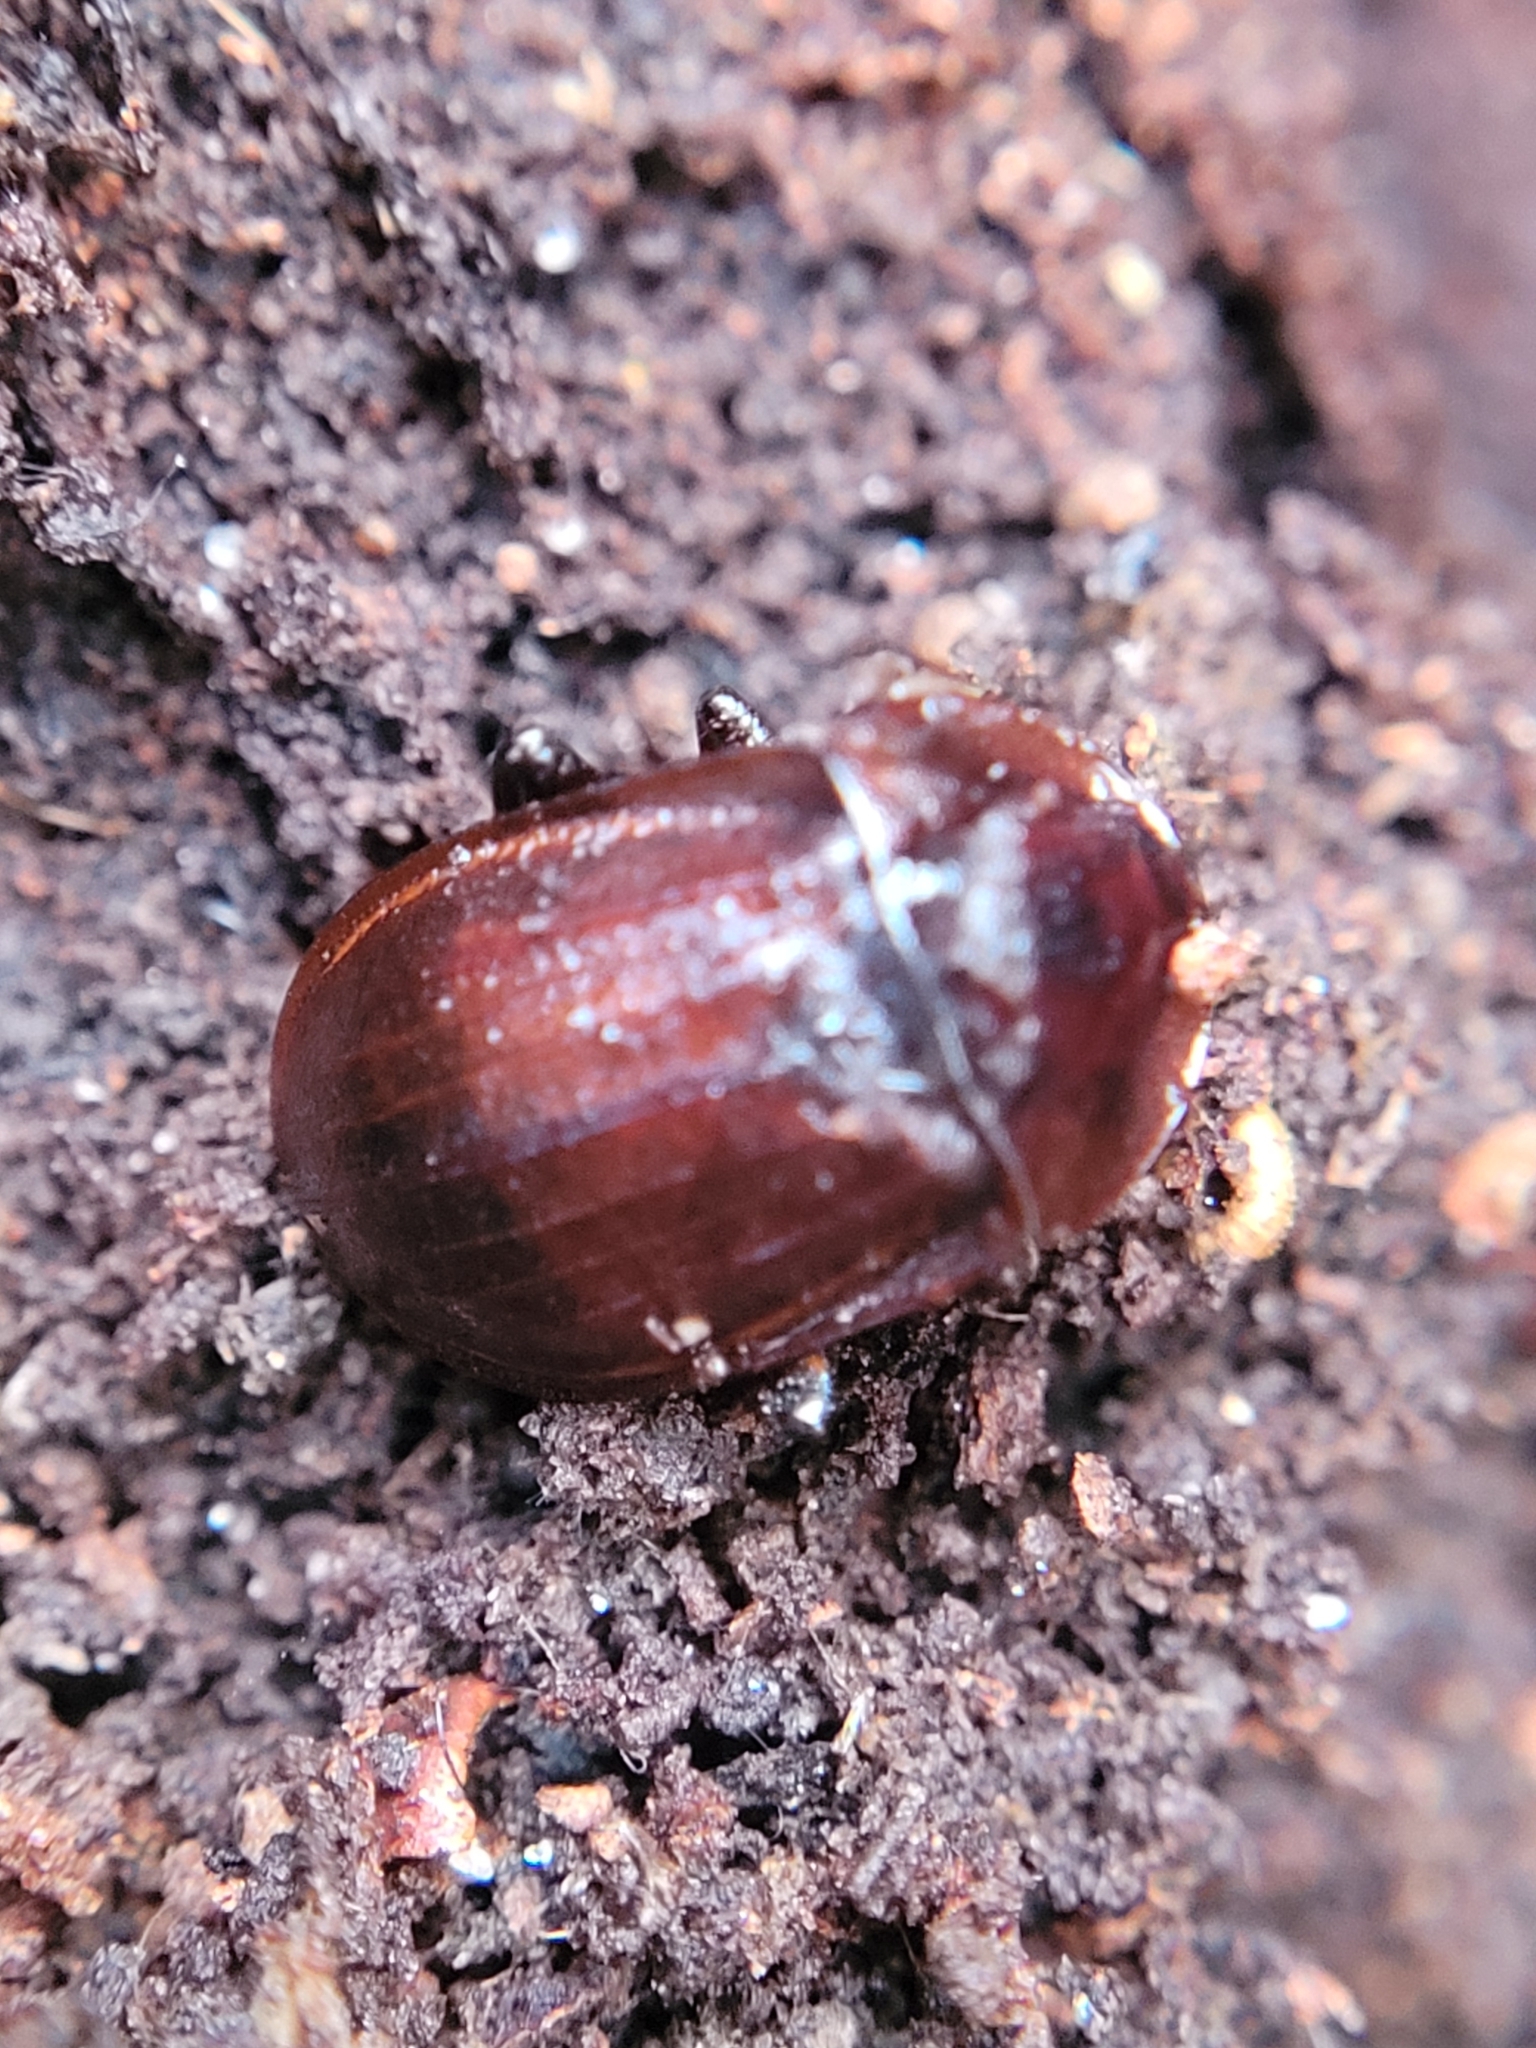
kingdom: Animalia
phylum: Arthropoda
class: Insecta
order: Coleoptera
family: Staphylinidae
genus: Silpha
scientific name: Silpha atrata
